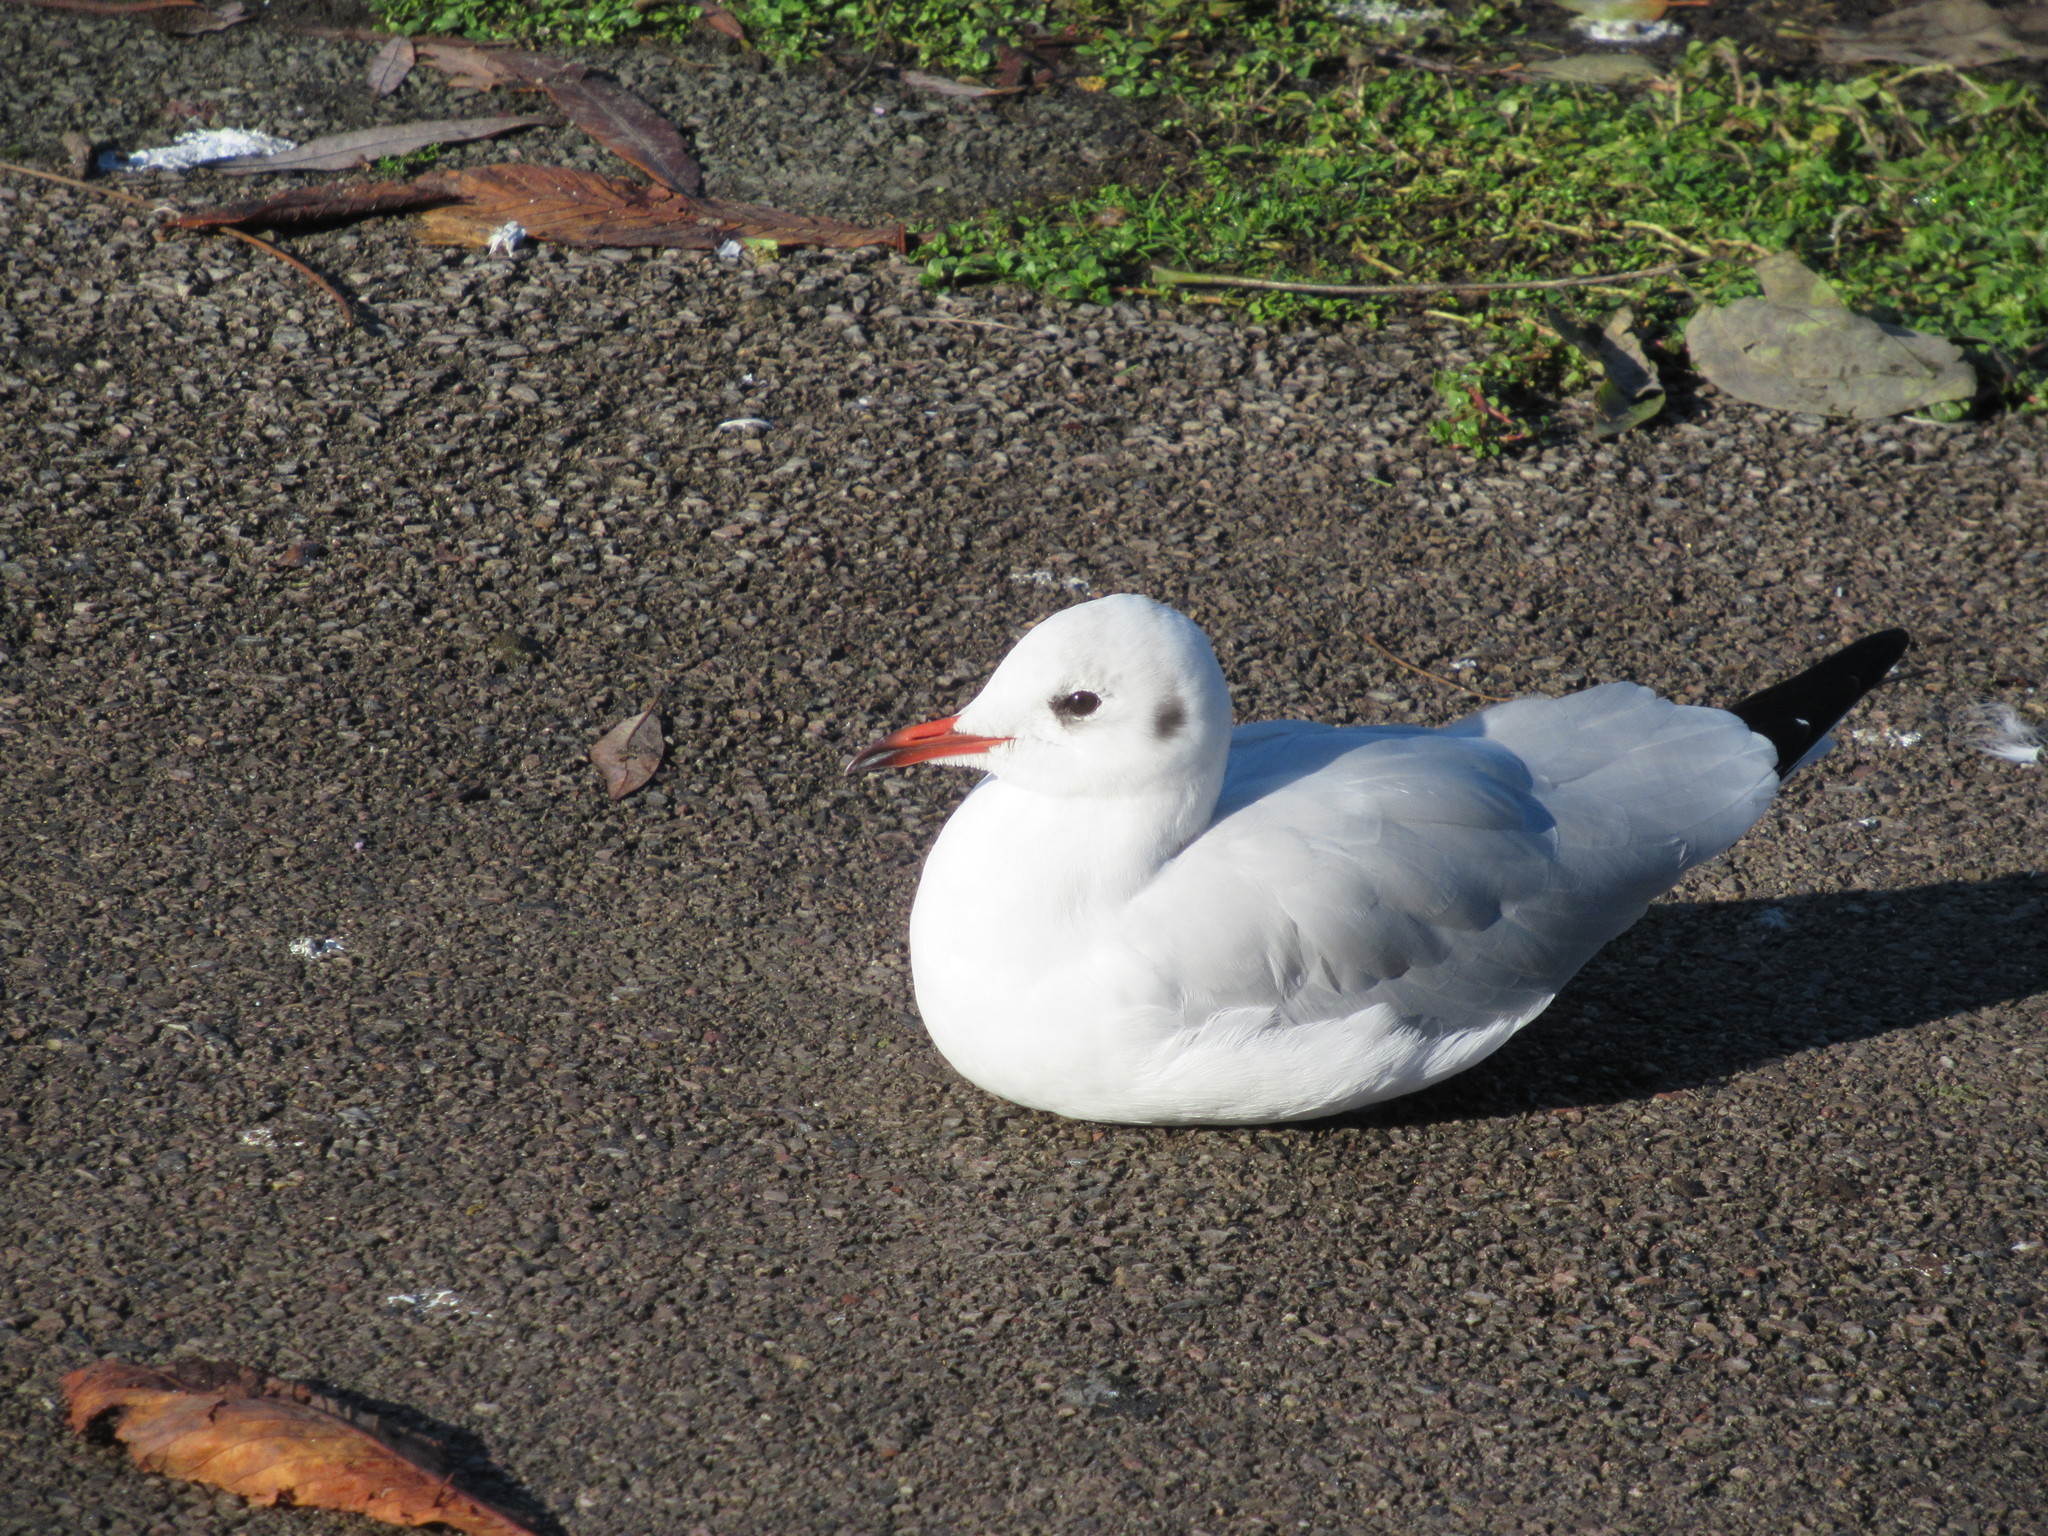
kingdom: Animalia
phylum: Chordata
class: Aves
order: Charadriiformes
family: Laridae
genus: Chroicocephalus
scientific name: Chroicocephalus ridibundus
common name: Black-headed gull
